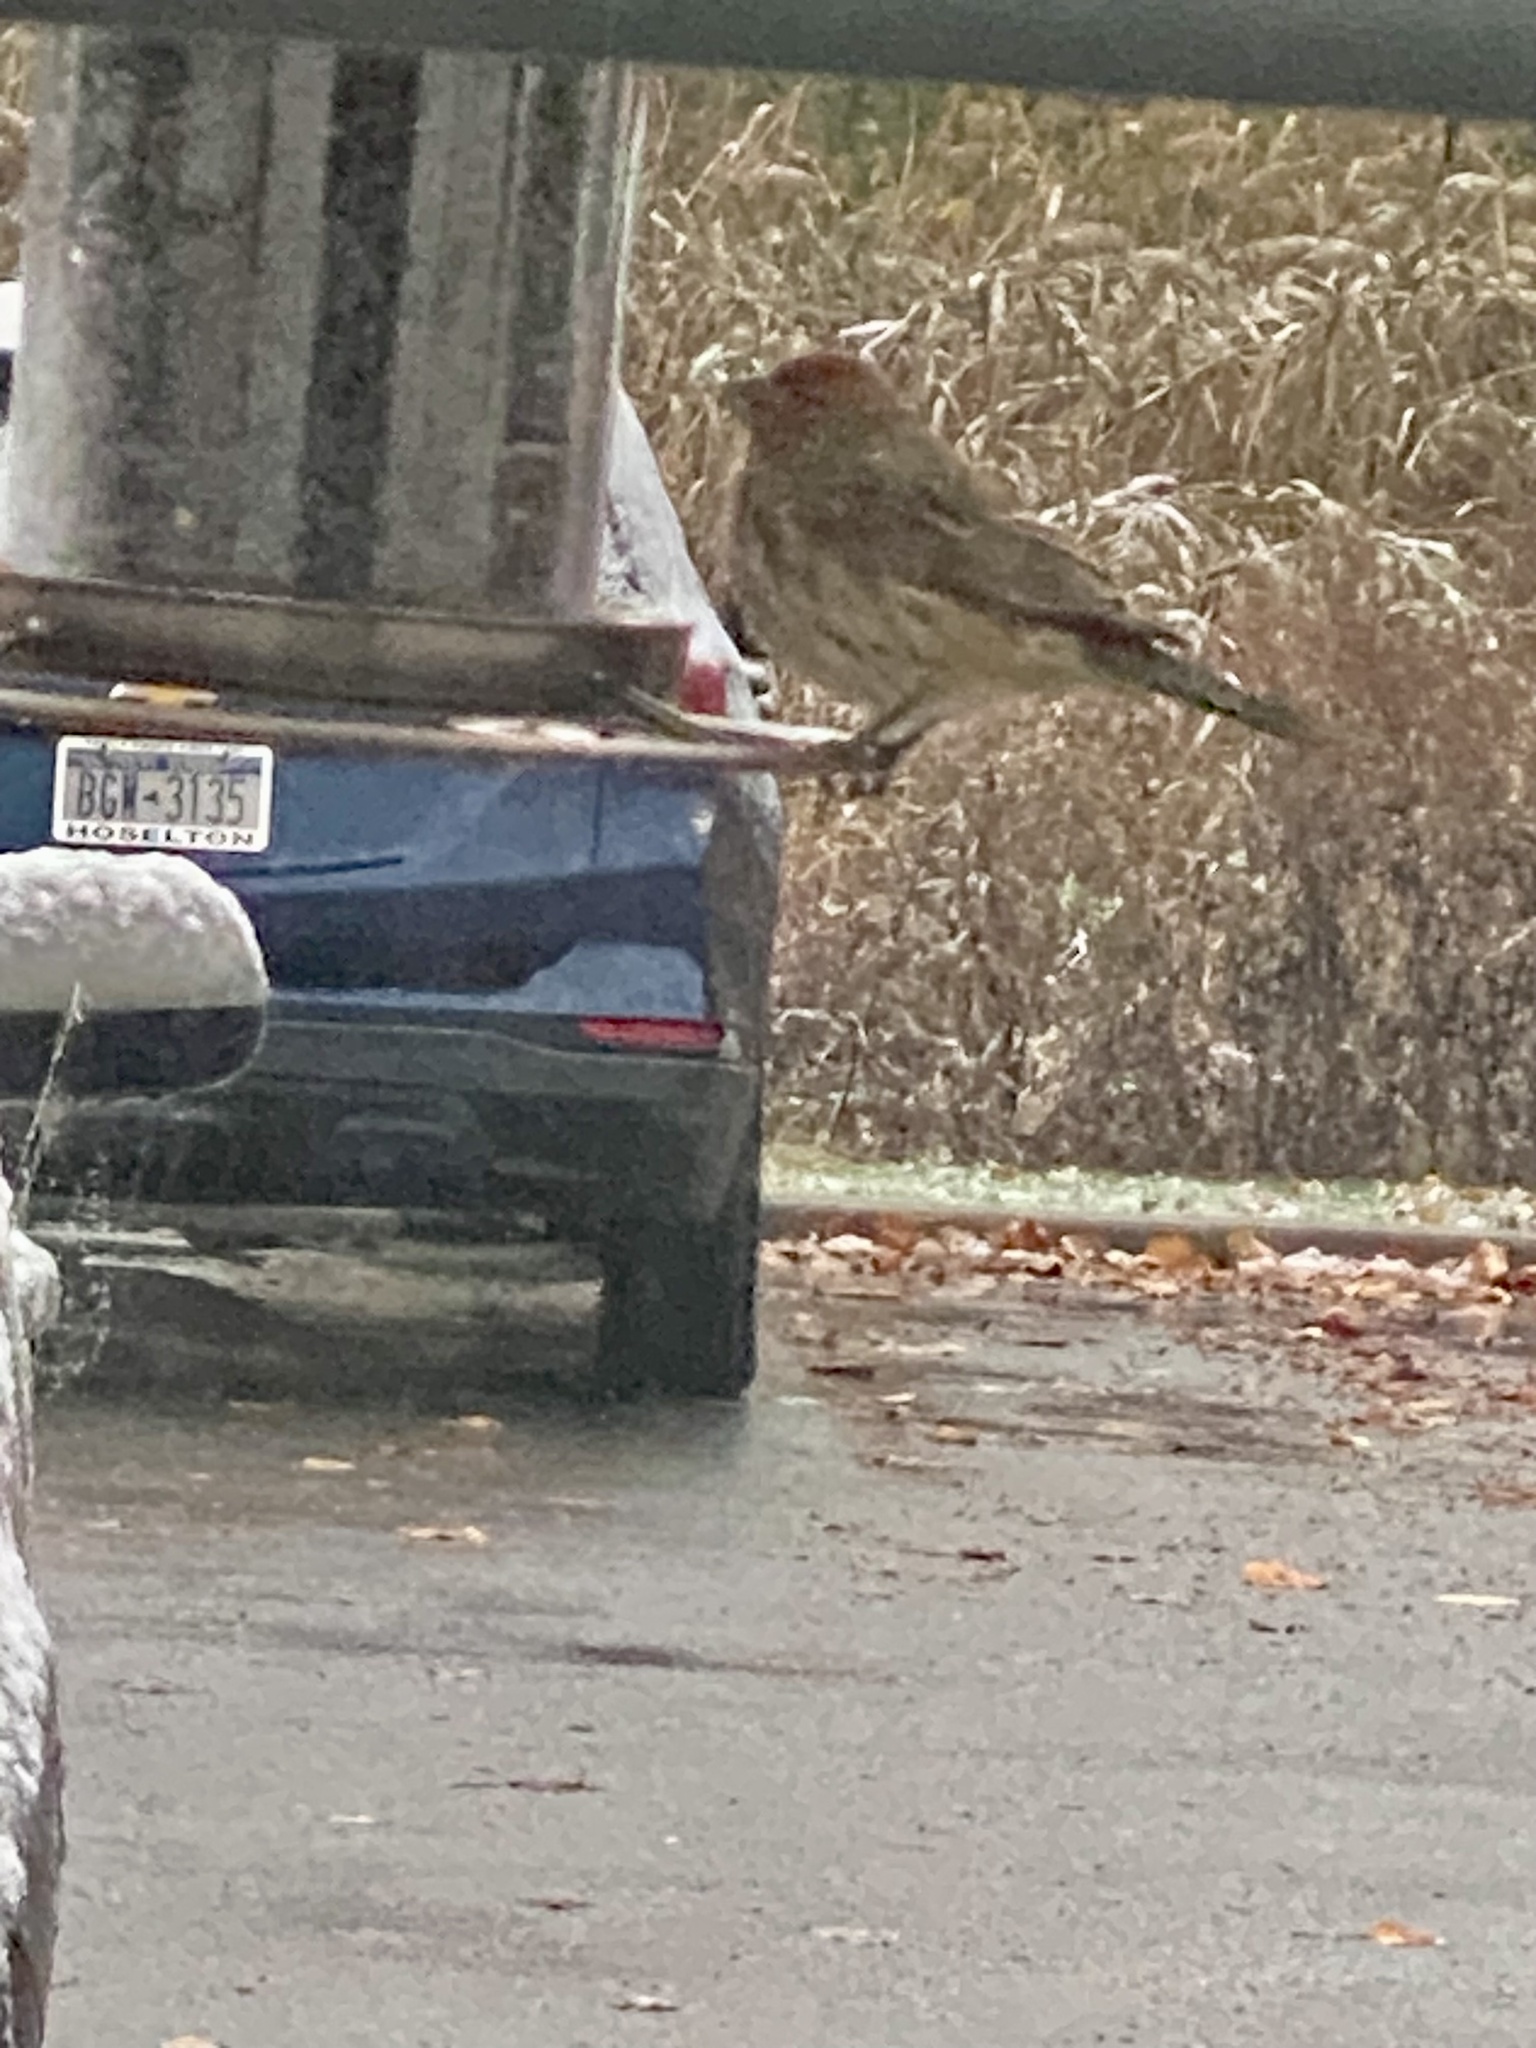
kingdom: Animalia
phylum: Chordata
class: Aves
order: Passeriformes
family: Fringillidae
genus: Haemorhous
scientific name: Haemorhous mexicanus
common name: House finch
